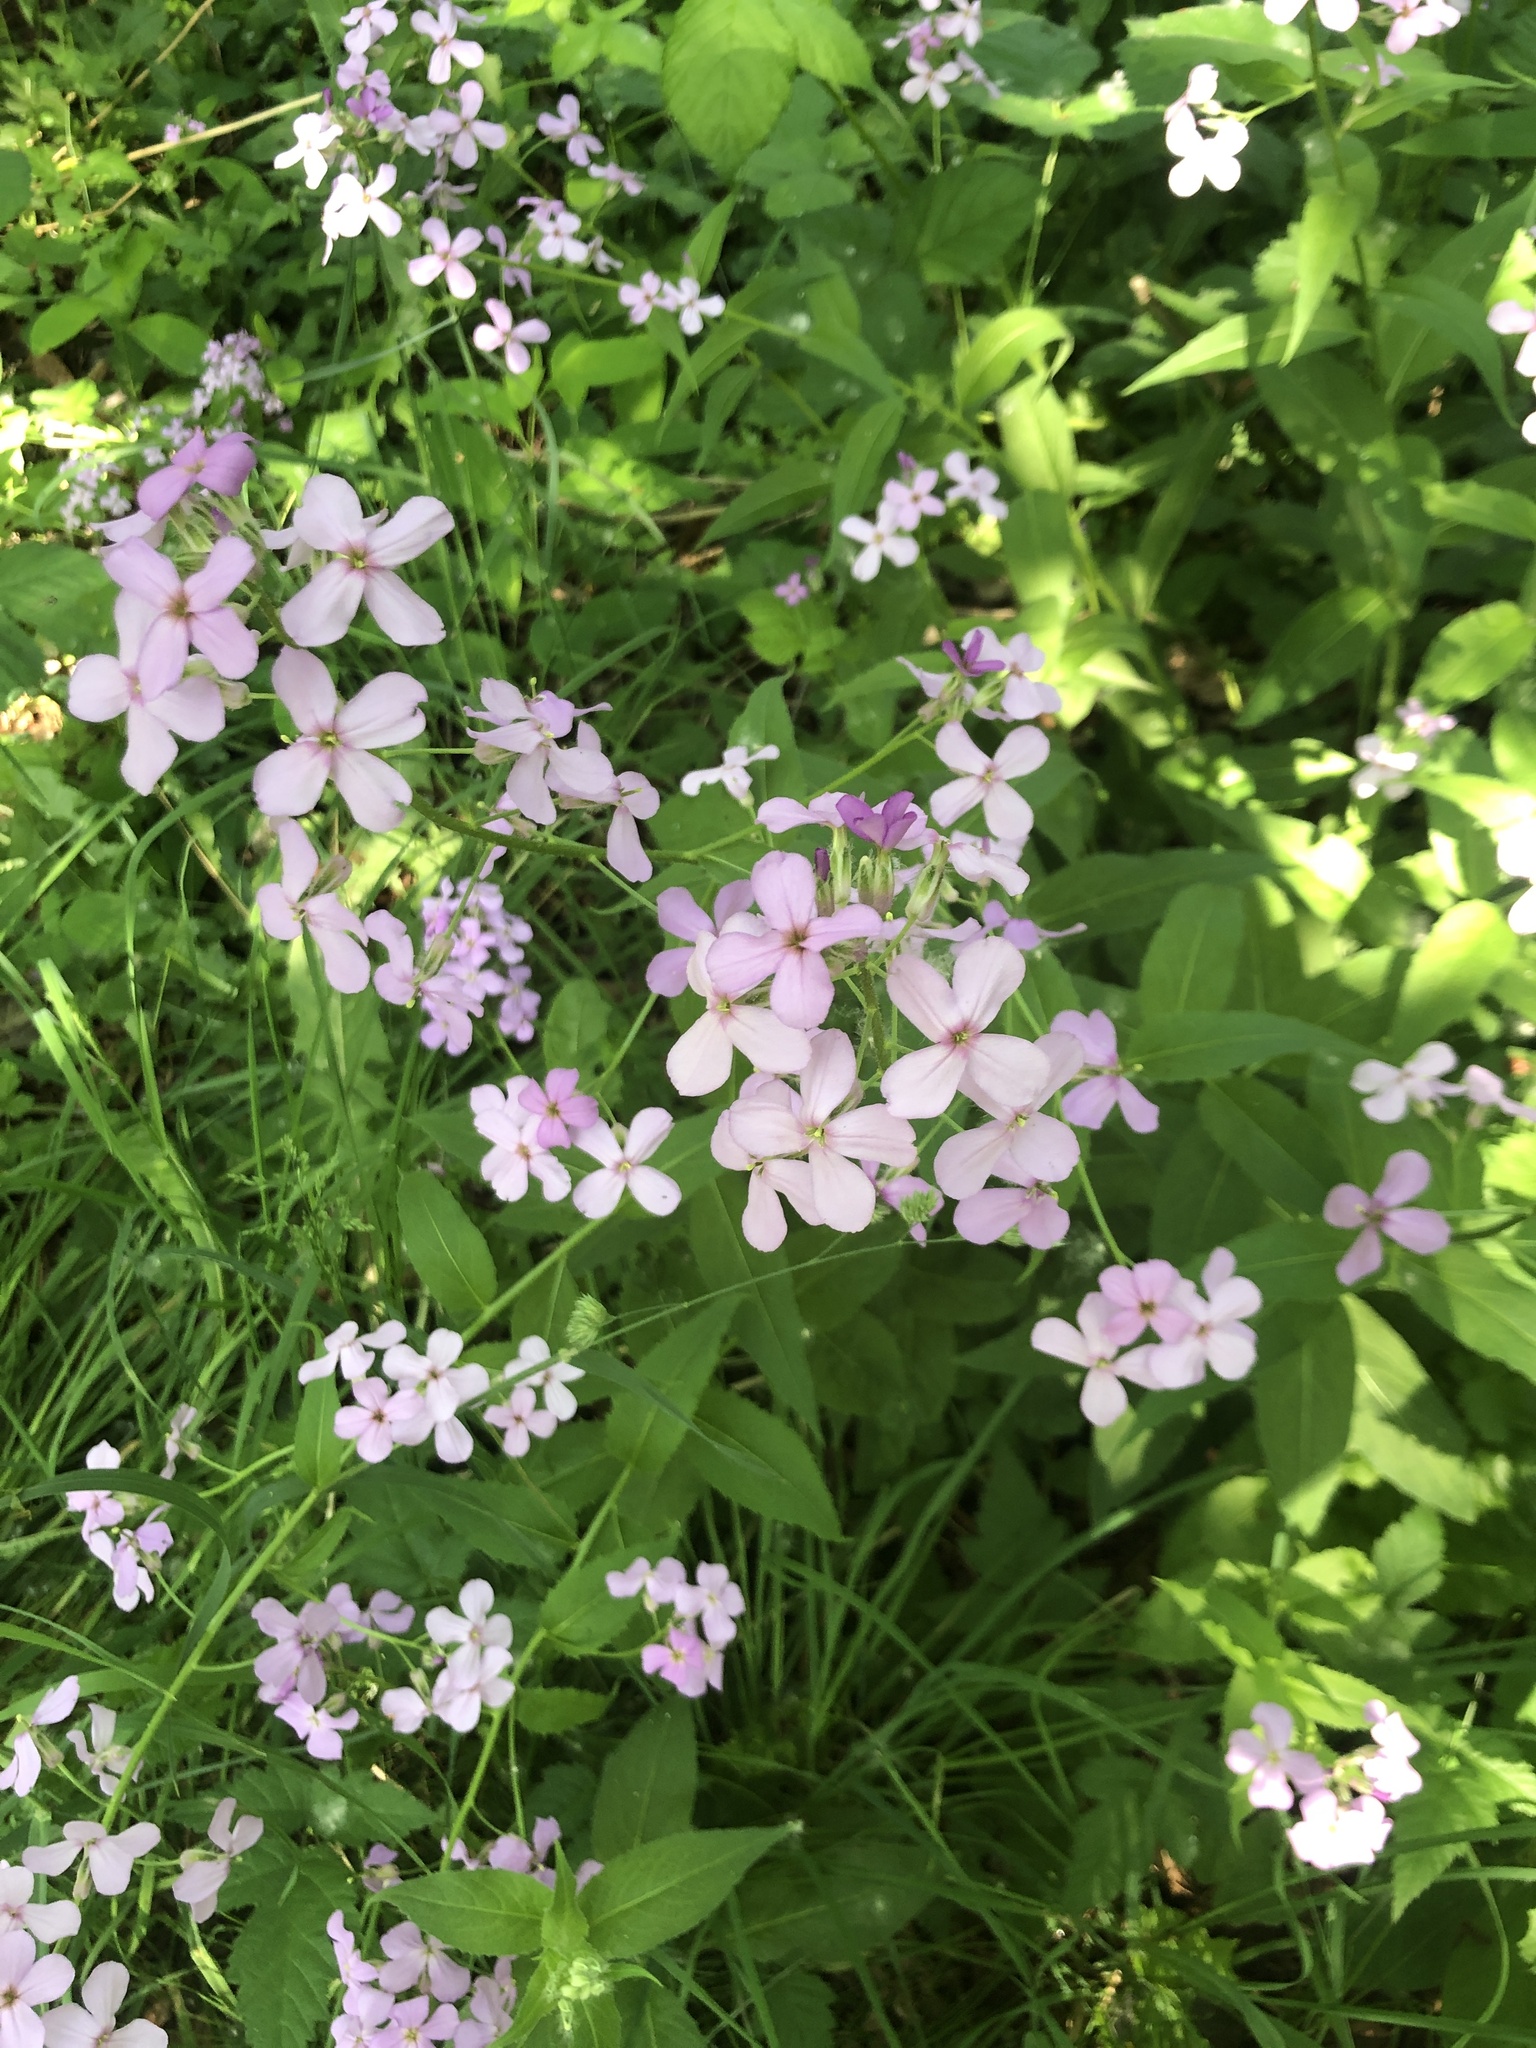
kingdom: Plantae
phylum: Tracheophyta
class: Magnoliopsida
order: Brassicales
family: Brassicaceae
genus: Hesperis
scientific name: Hesperis matronalis
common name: Dame's-violet
